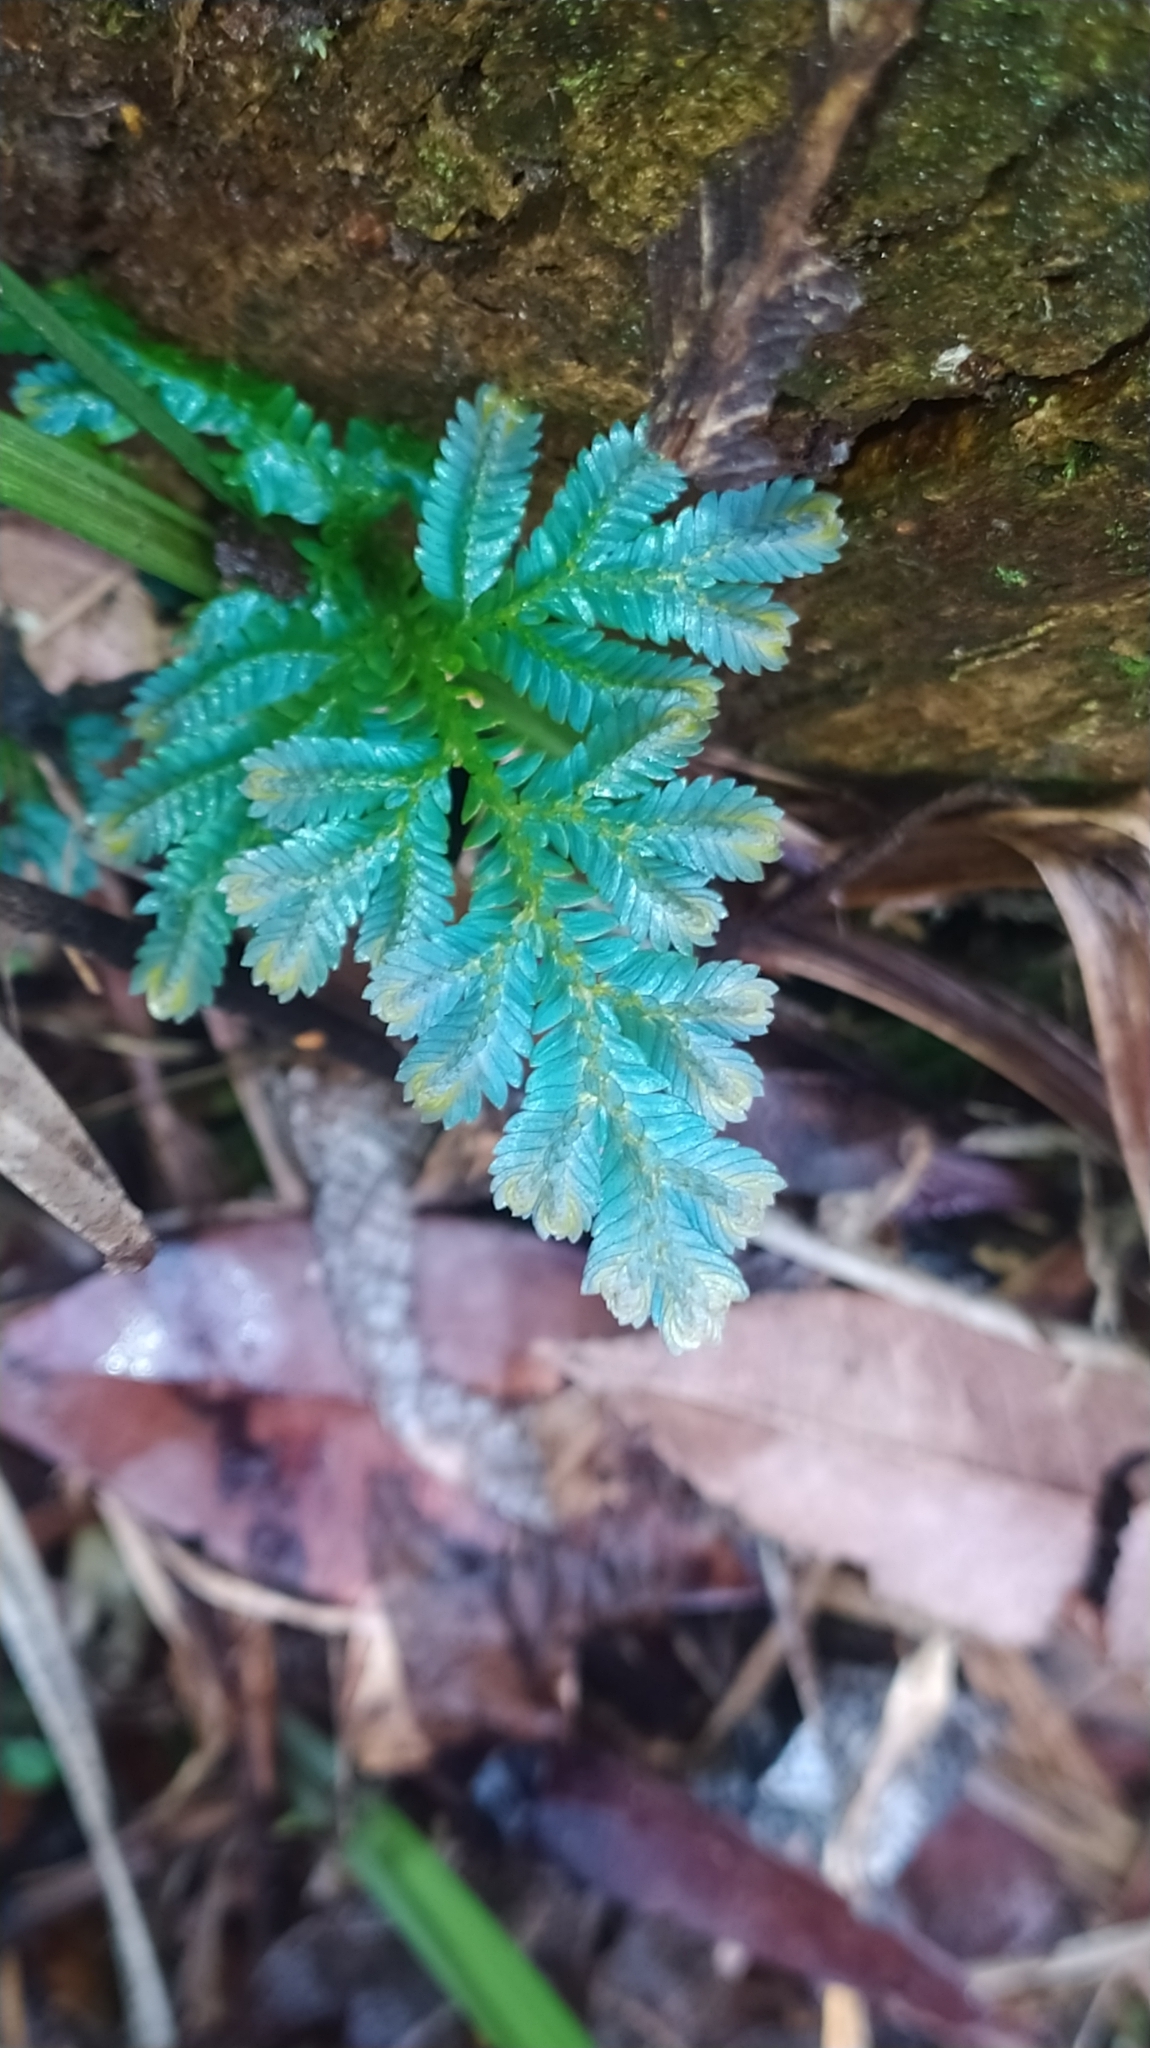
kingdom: Plantae
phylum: Tracheophyta
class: Lycopodiopsida
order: Selaginellales
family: Selaginellaceae
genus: Selaginella
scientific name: Selaginella willdenowii
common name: Willdenow's spikemoss
